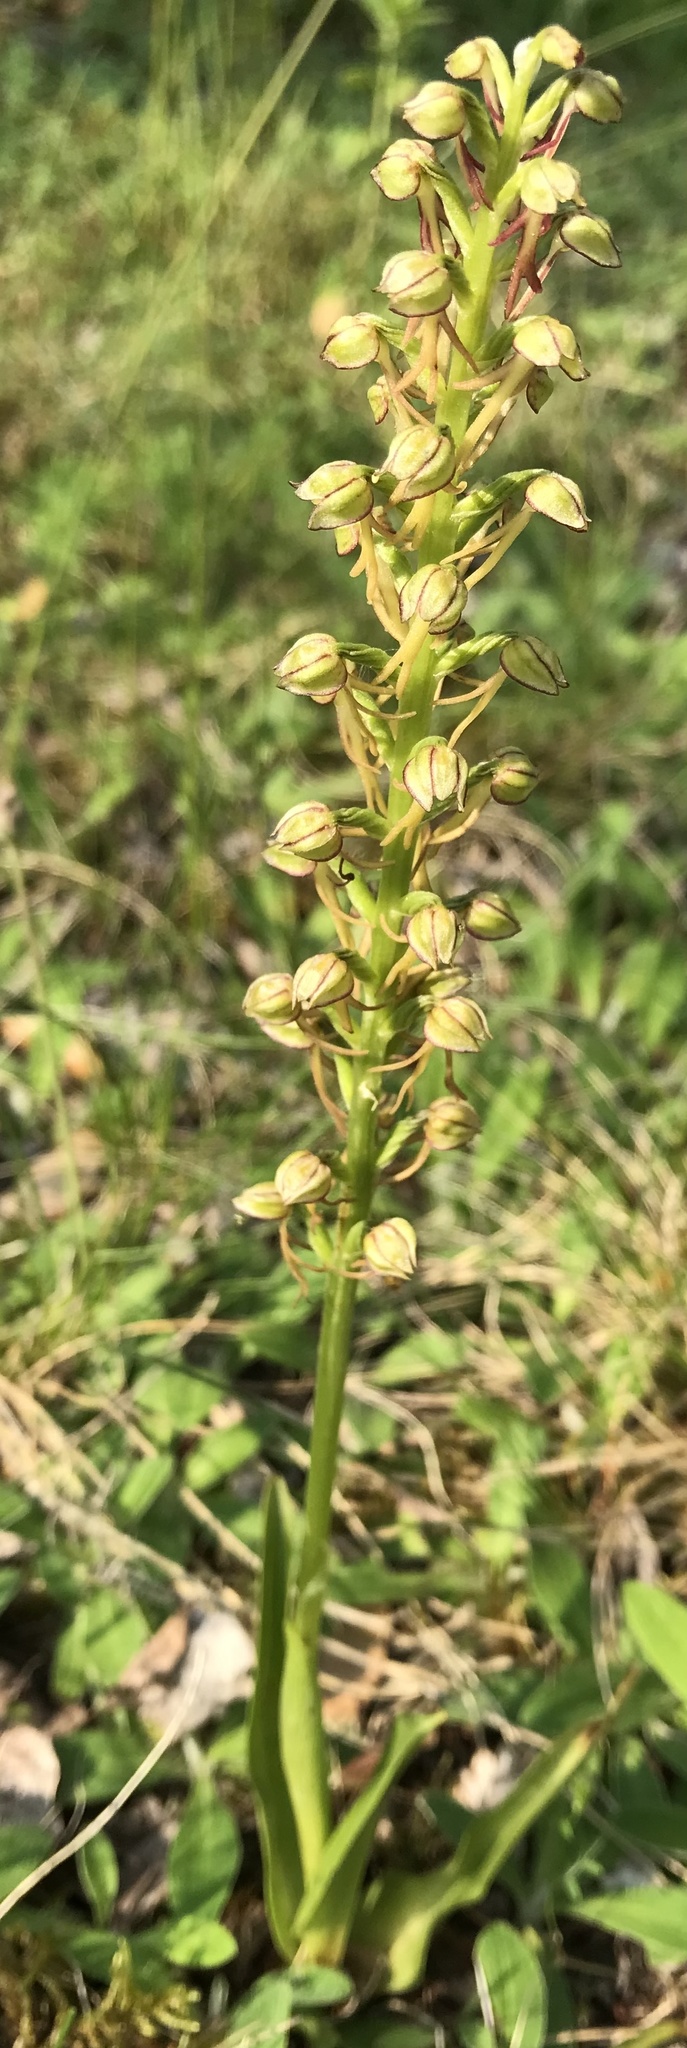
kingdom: Plantae
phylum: Tracheophyta
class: Liliopsida
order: Asparagales
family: Orchidaceae
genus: Orchis
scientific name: Orchis anthropophora
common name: Man orchid
